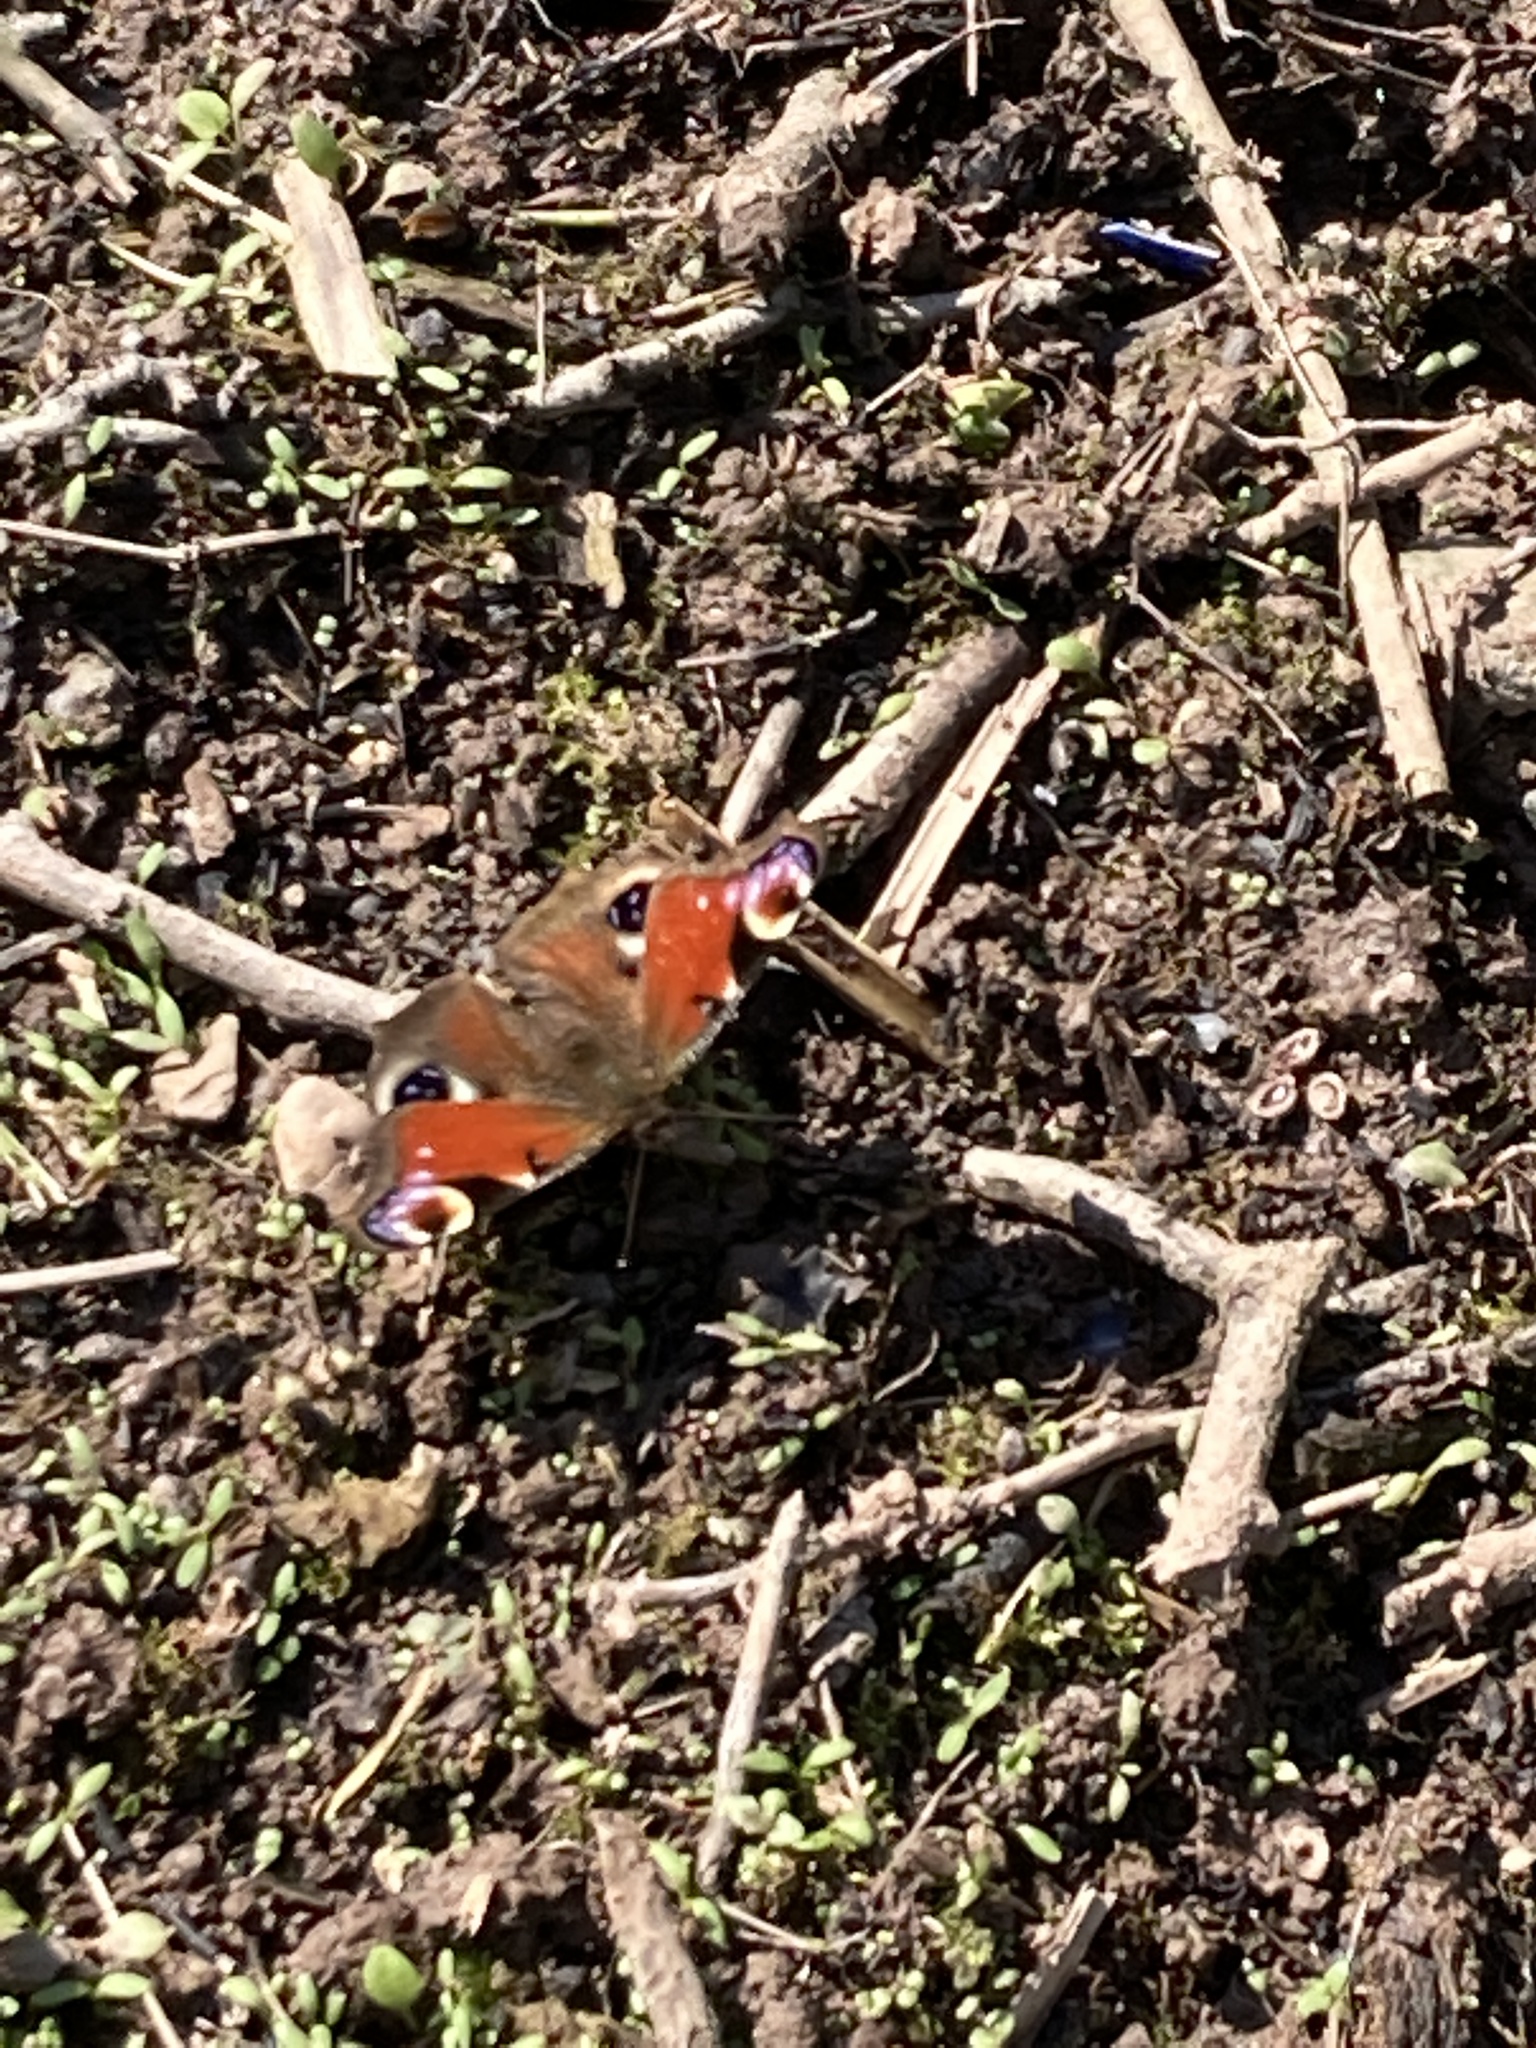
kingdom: Animalia
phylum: Arthropoda
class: Insecta
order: Lepidoptera
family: Nymphalidae
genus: Aglais
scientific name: Aglais io
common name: Peacock
